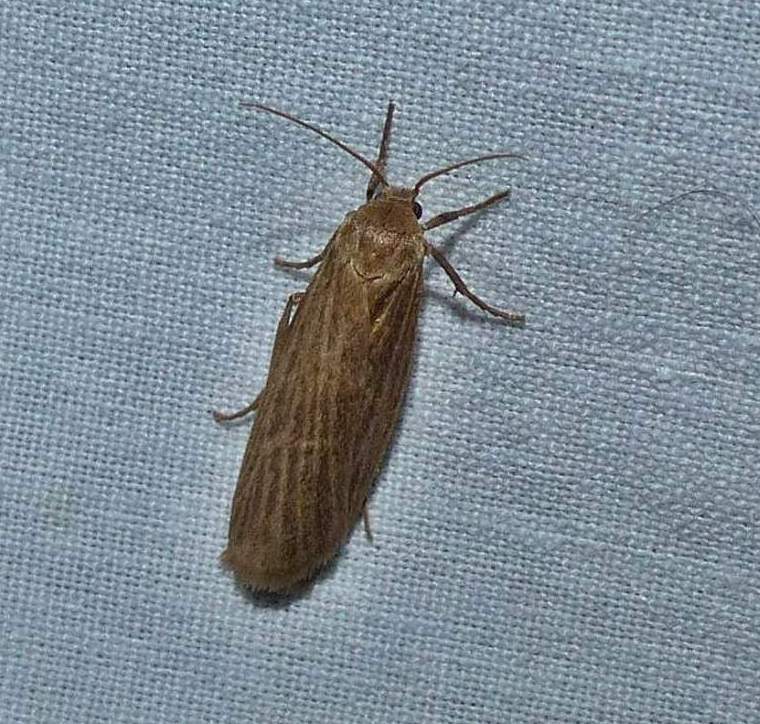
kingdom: Animalia
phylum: Arthropoda
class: Insecta
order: Lepidoptera
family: Erebidae
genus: Crambidia
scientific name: Crambidia pallida
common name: Pale lichen moth
